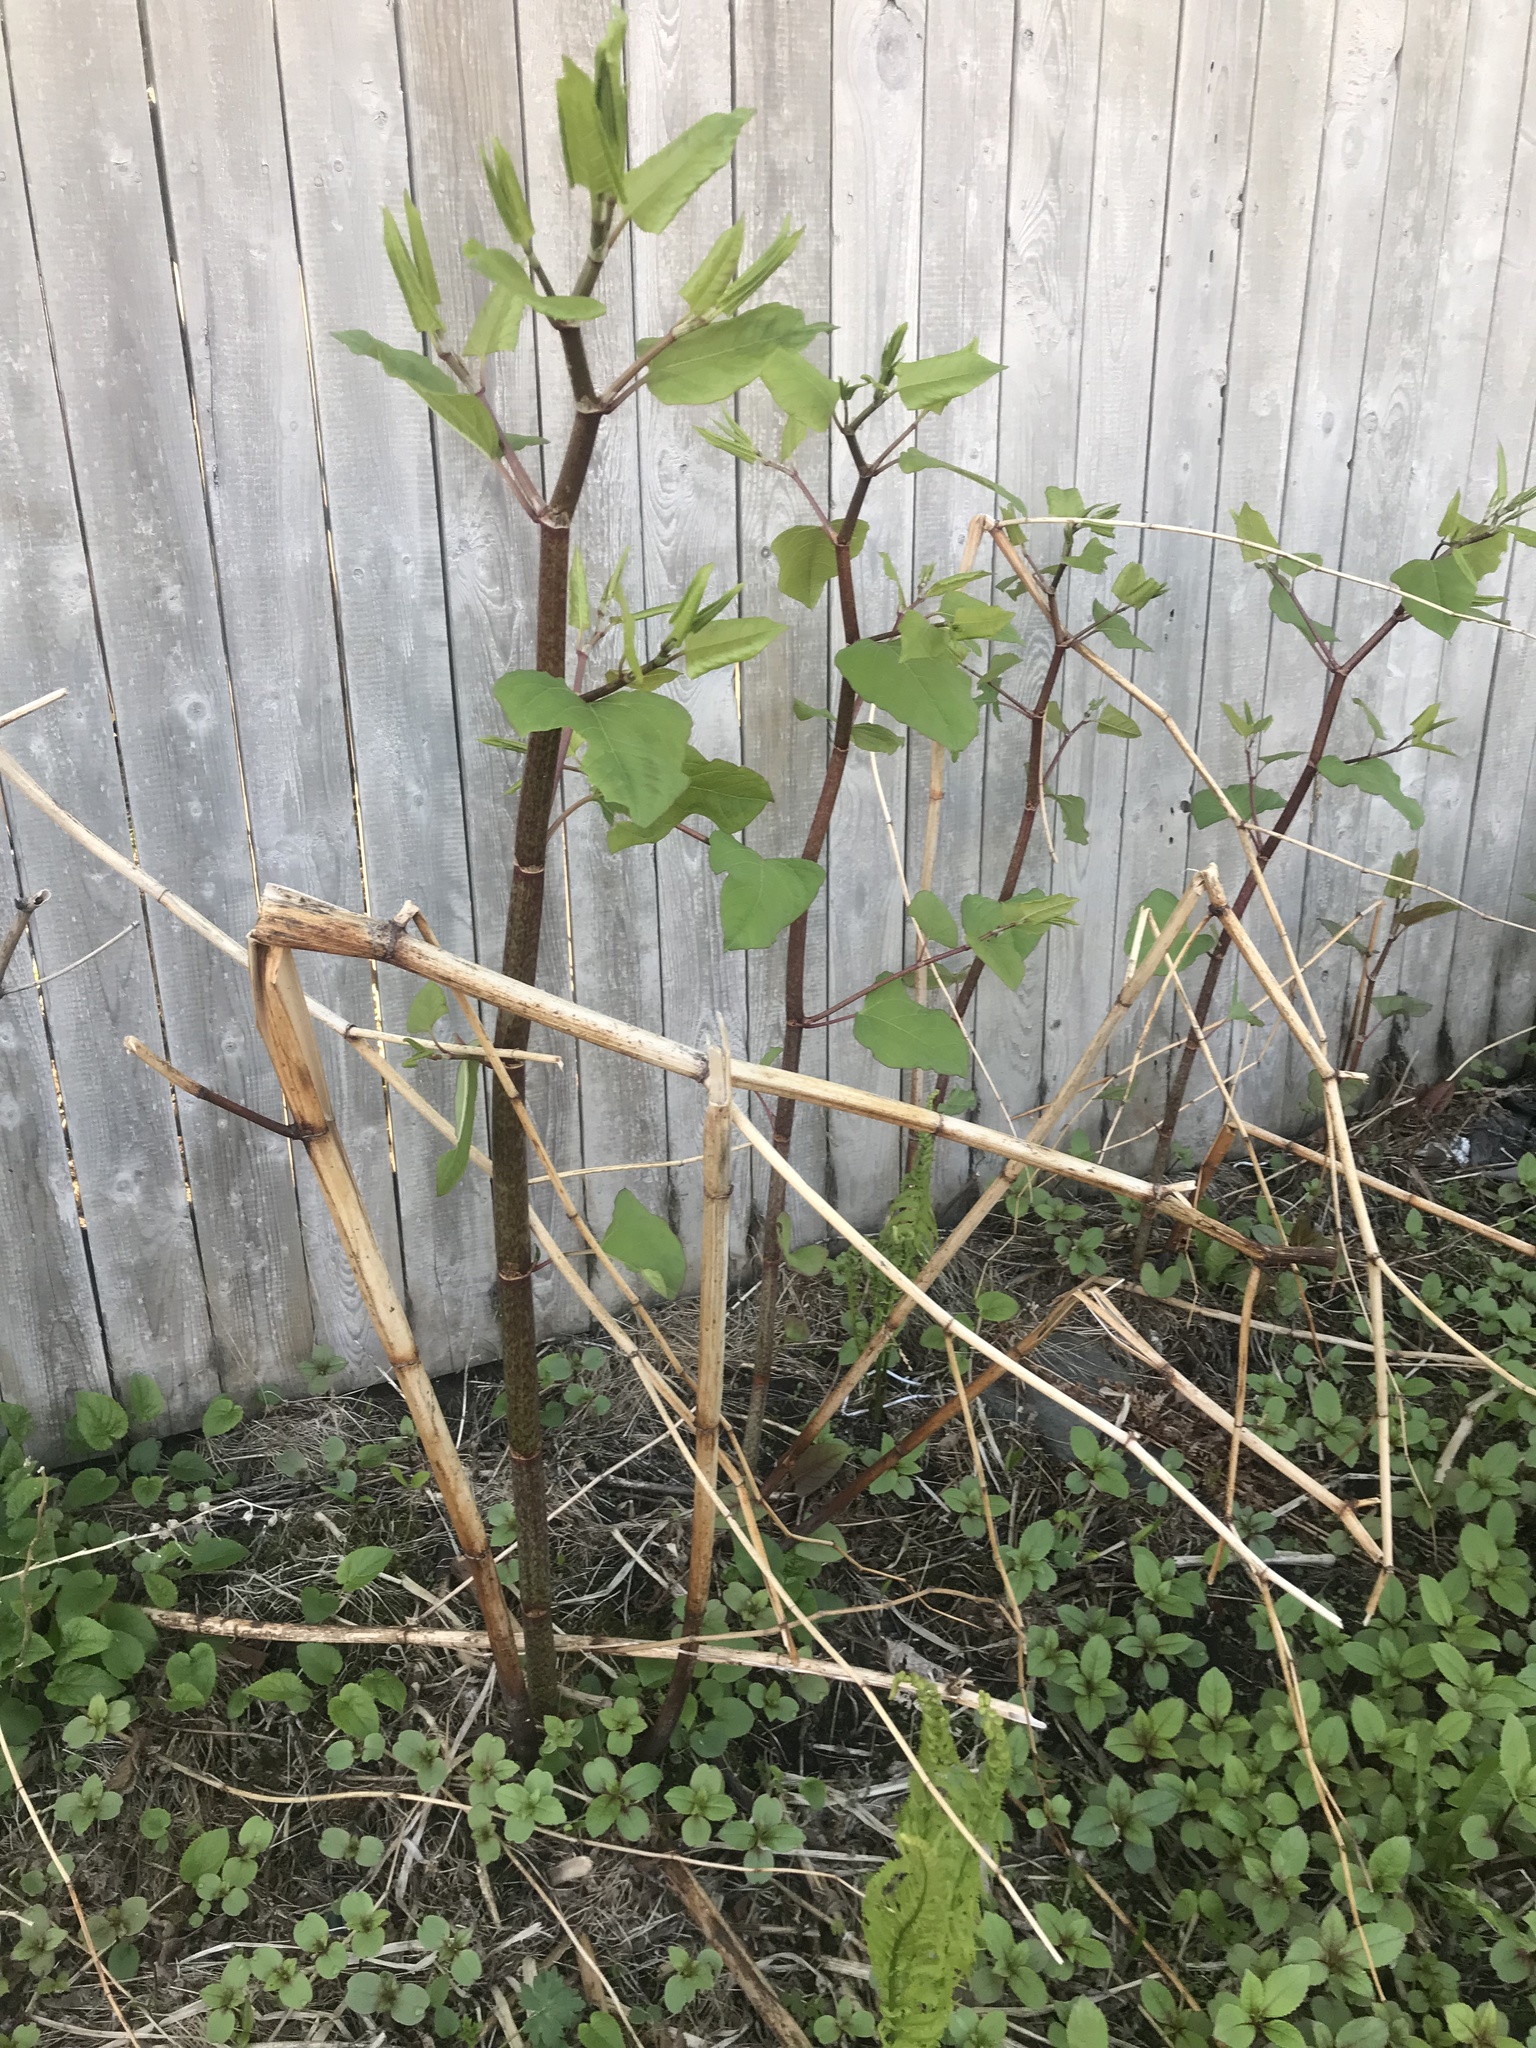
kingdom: Plantae
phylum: Tracheophyta
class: Magnoliopsida
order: Caryophyllales
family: Polygonaceae
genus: Reynoutria
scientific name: Reynoutria japonica
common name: Japanese knotweed
